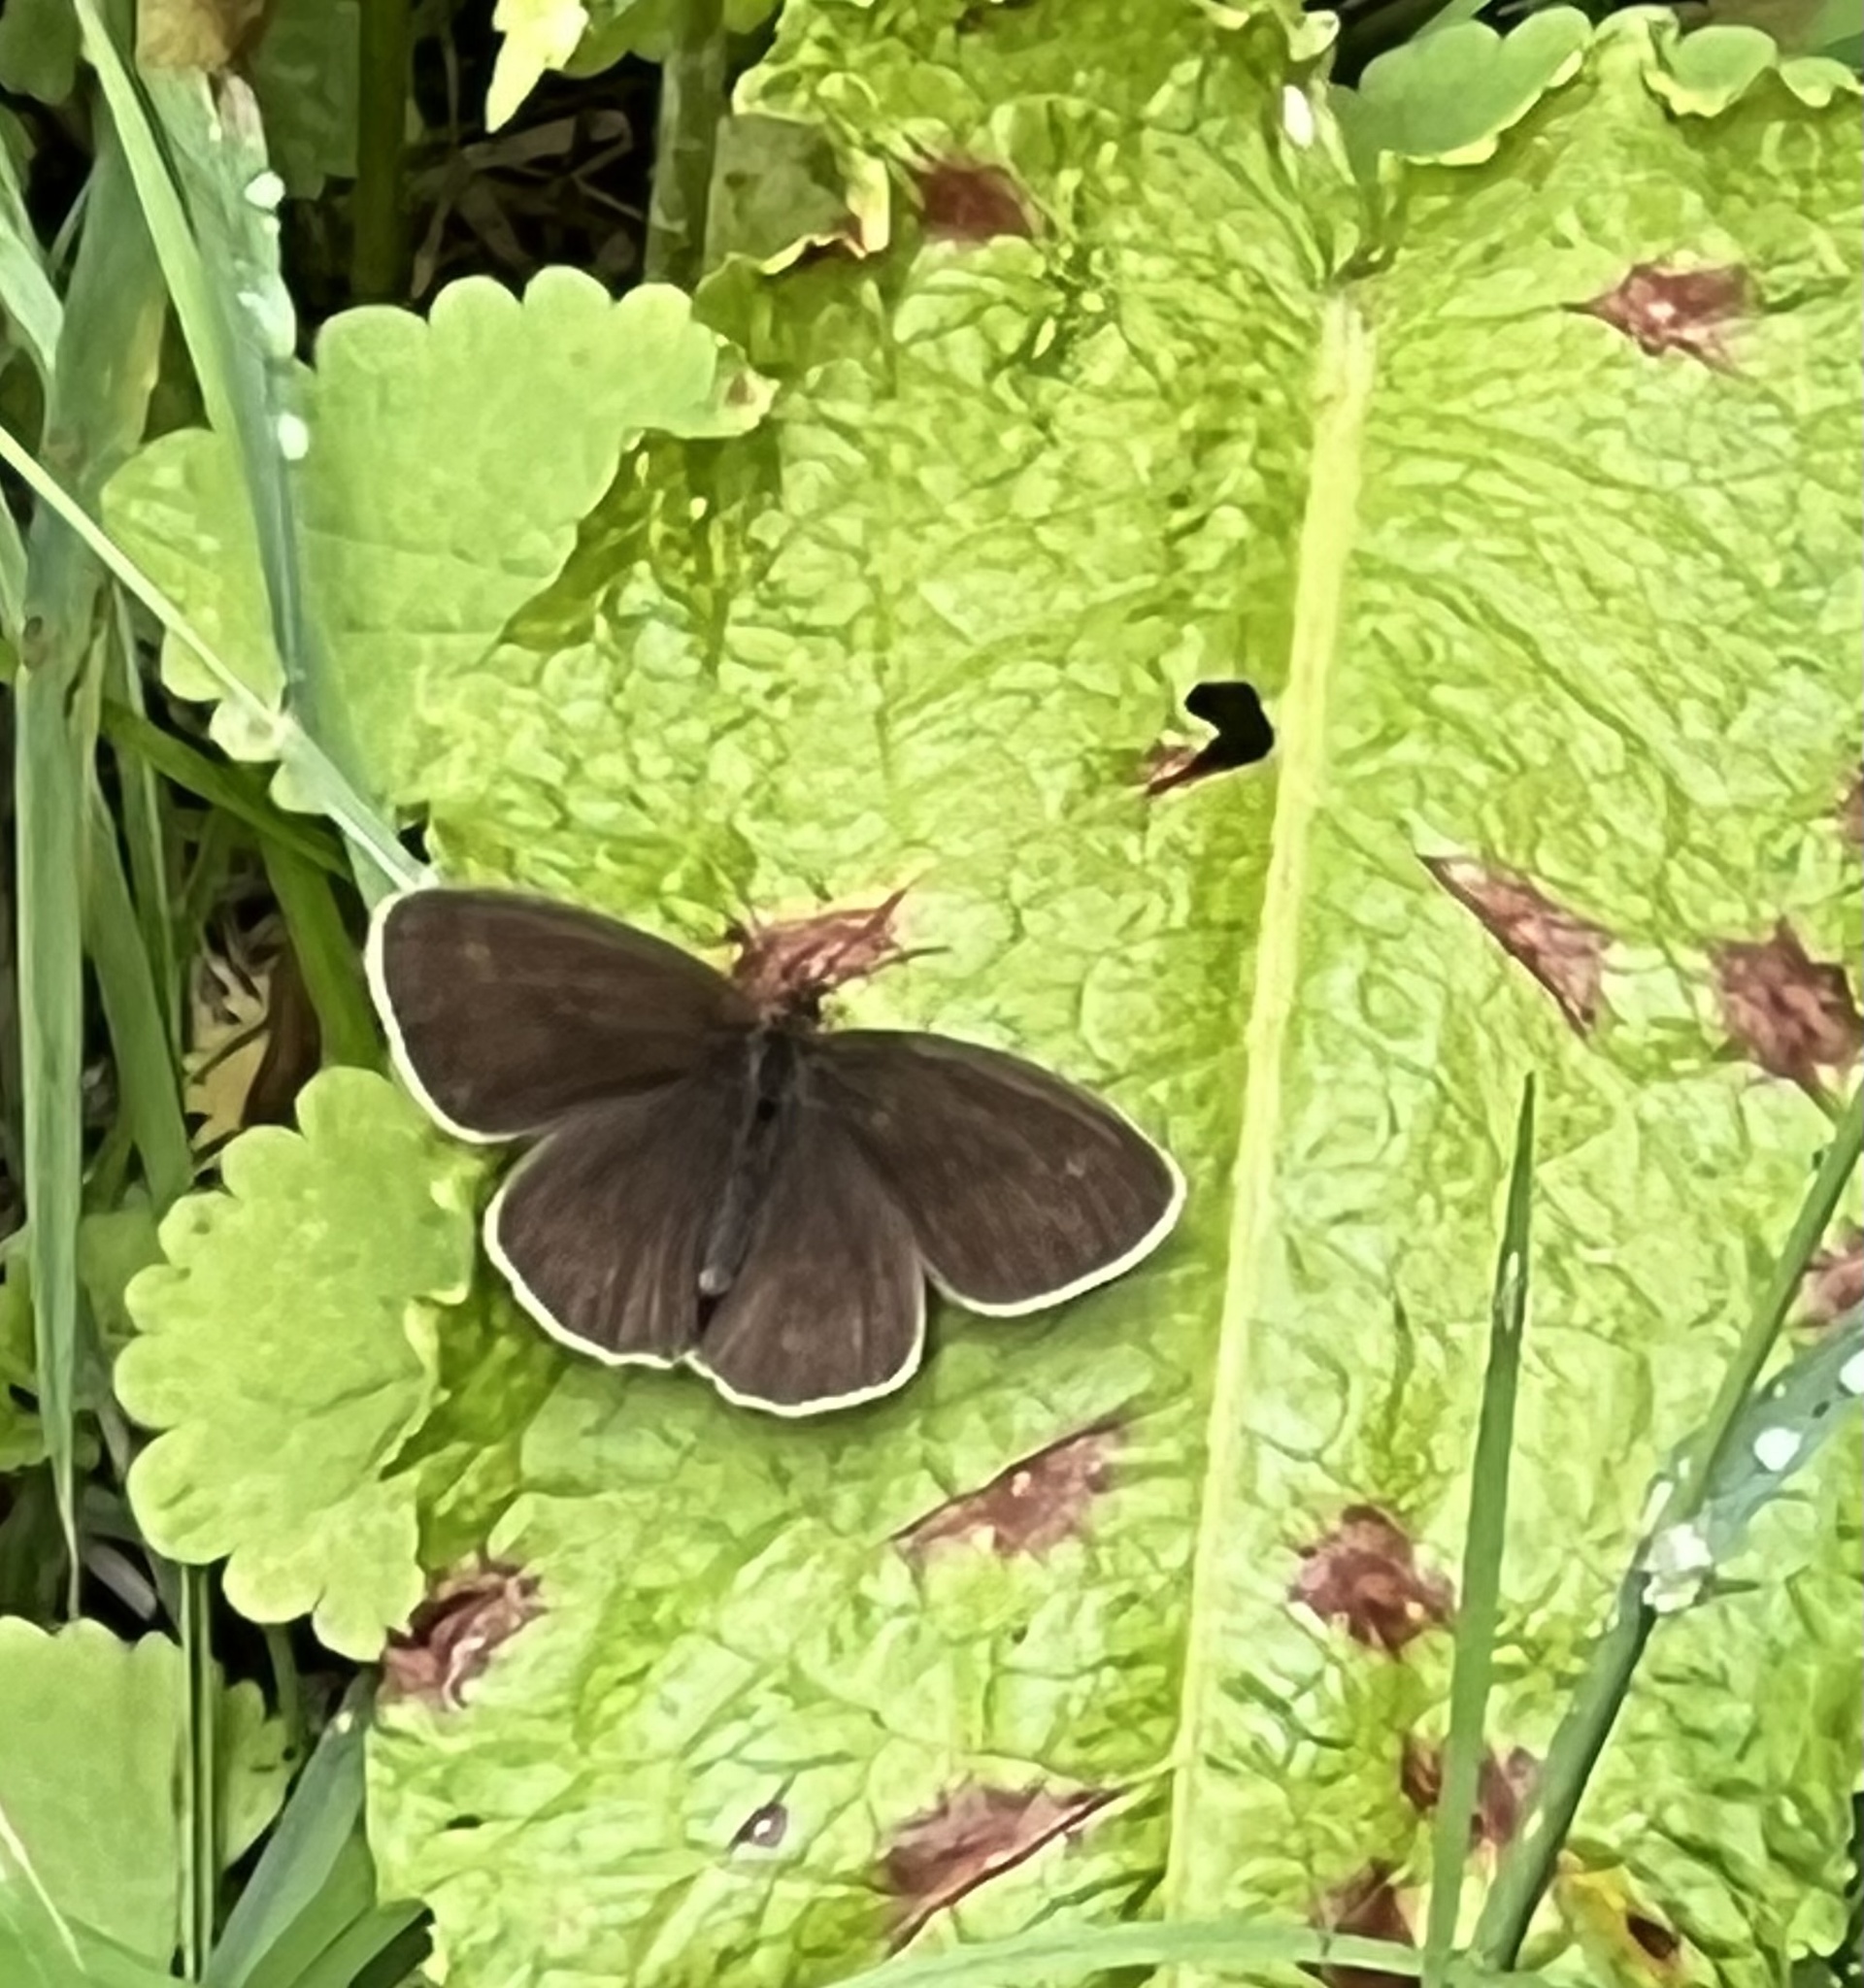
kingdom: Animalia
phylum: Arthropoda
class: Insecta
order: Lepidoptera
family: Nymphalidae
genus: Aphantopus
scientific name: Aphantopus hyperantus
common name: Ringlet
